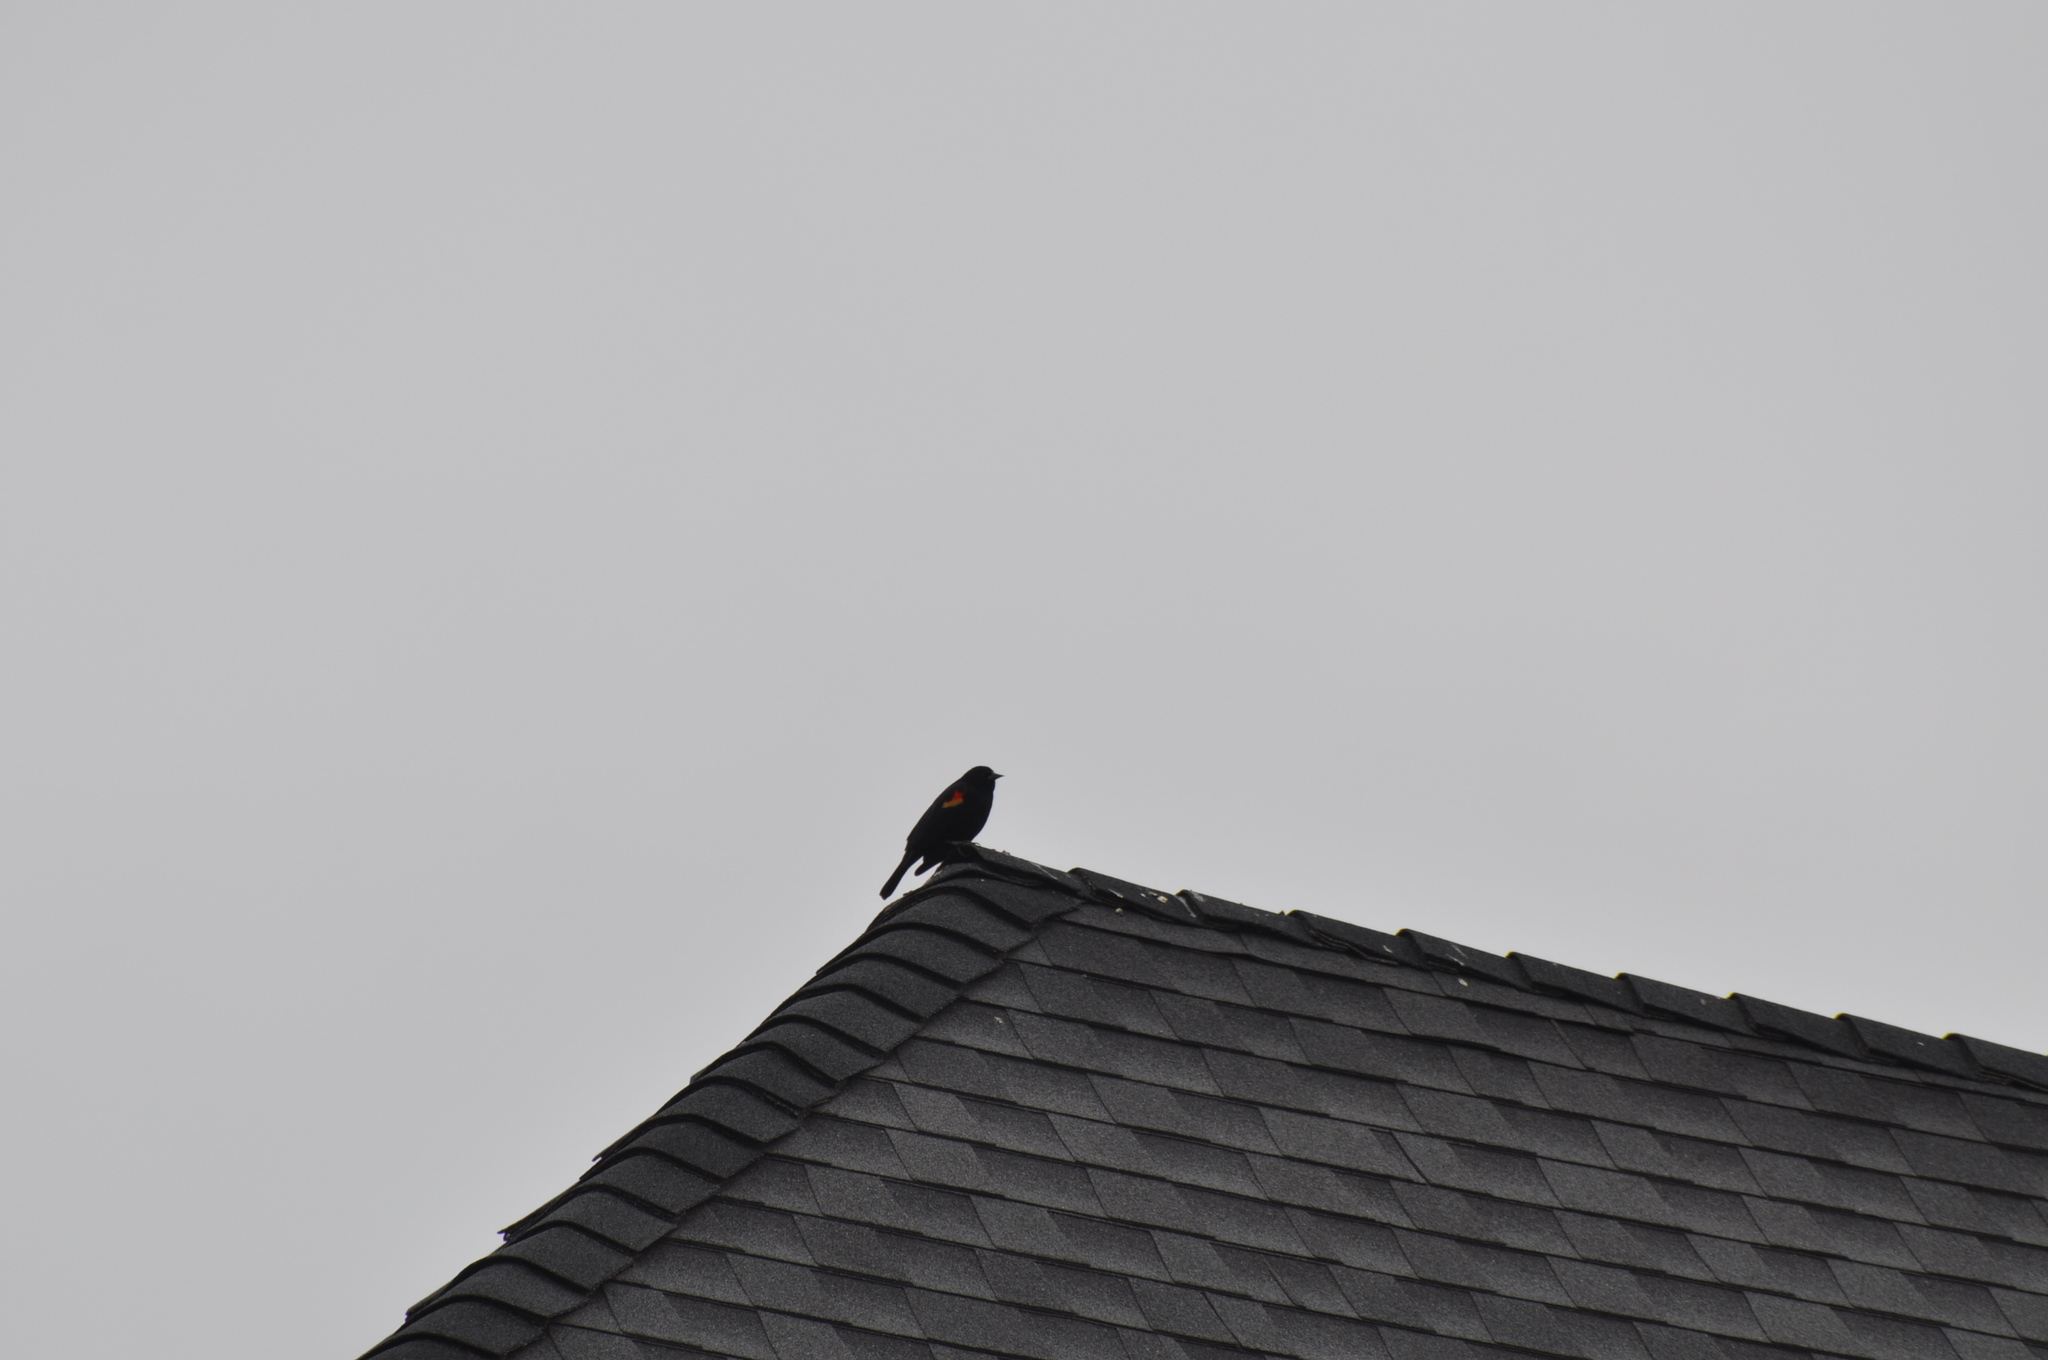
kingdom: Animalia
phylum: Chordata
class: Aves
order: Passeriformes
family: Icteridae
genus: Agelaius
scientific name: Agelaius phoeniceus
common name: Red-winged blackbird
